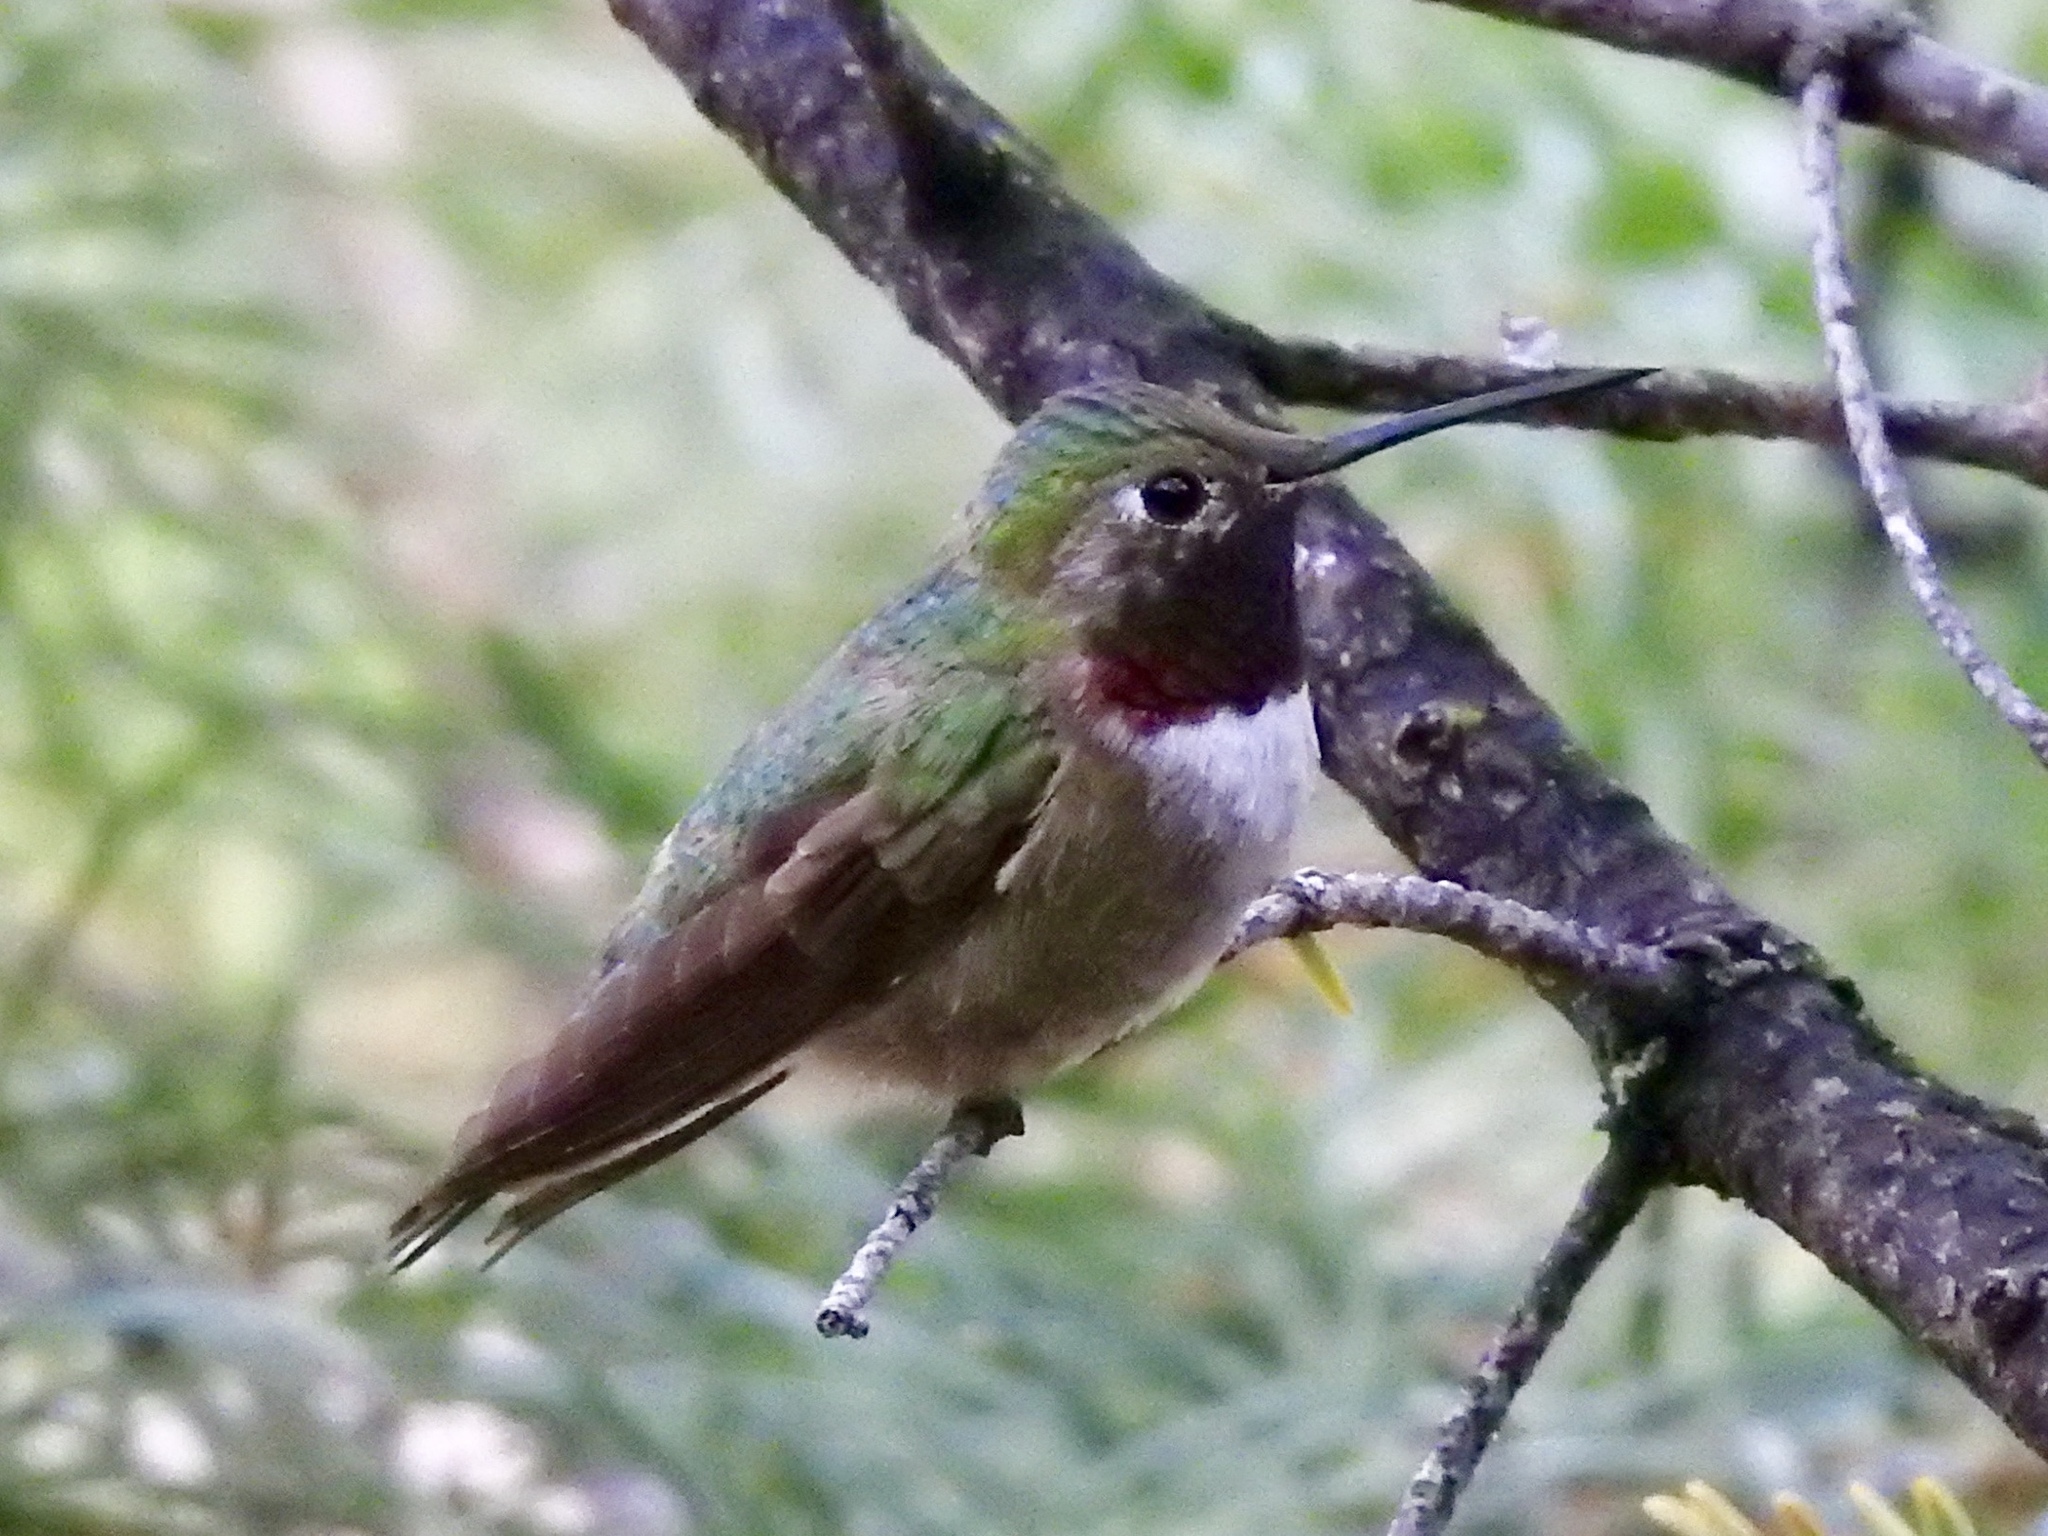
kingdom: Animalia
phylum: Chordata
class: Aves
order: Apodiformes
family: Trochilidae
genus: Selasphorus
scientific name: Selasphorus platycercus
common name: Broad-tailed hummingbird
